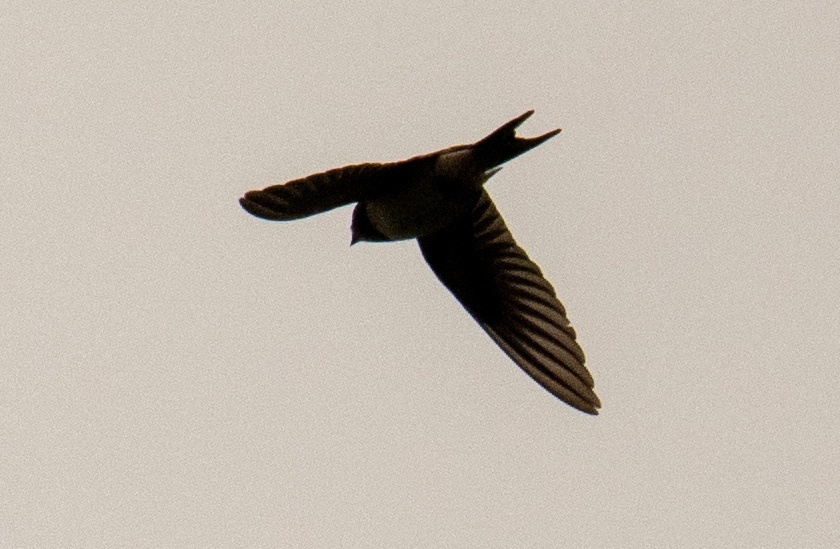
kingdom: Animalia
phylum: Chordata
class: Aves
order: Passeriformes
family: Hirundinidae
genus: Hirundo
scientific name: Hirundo rustica
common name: Barn swallow
